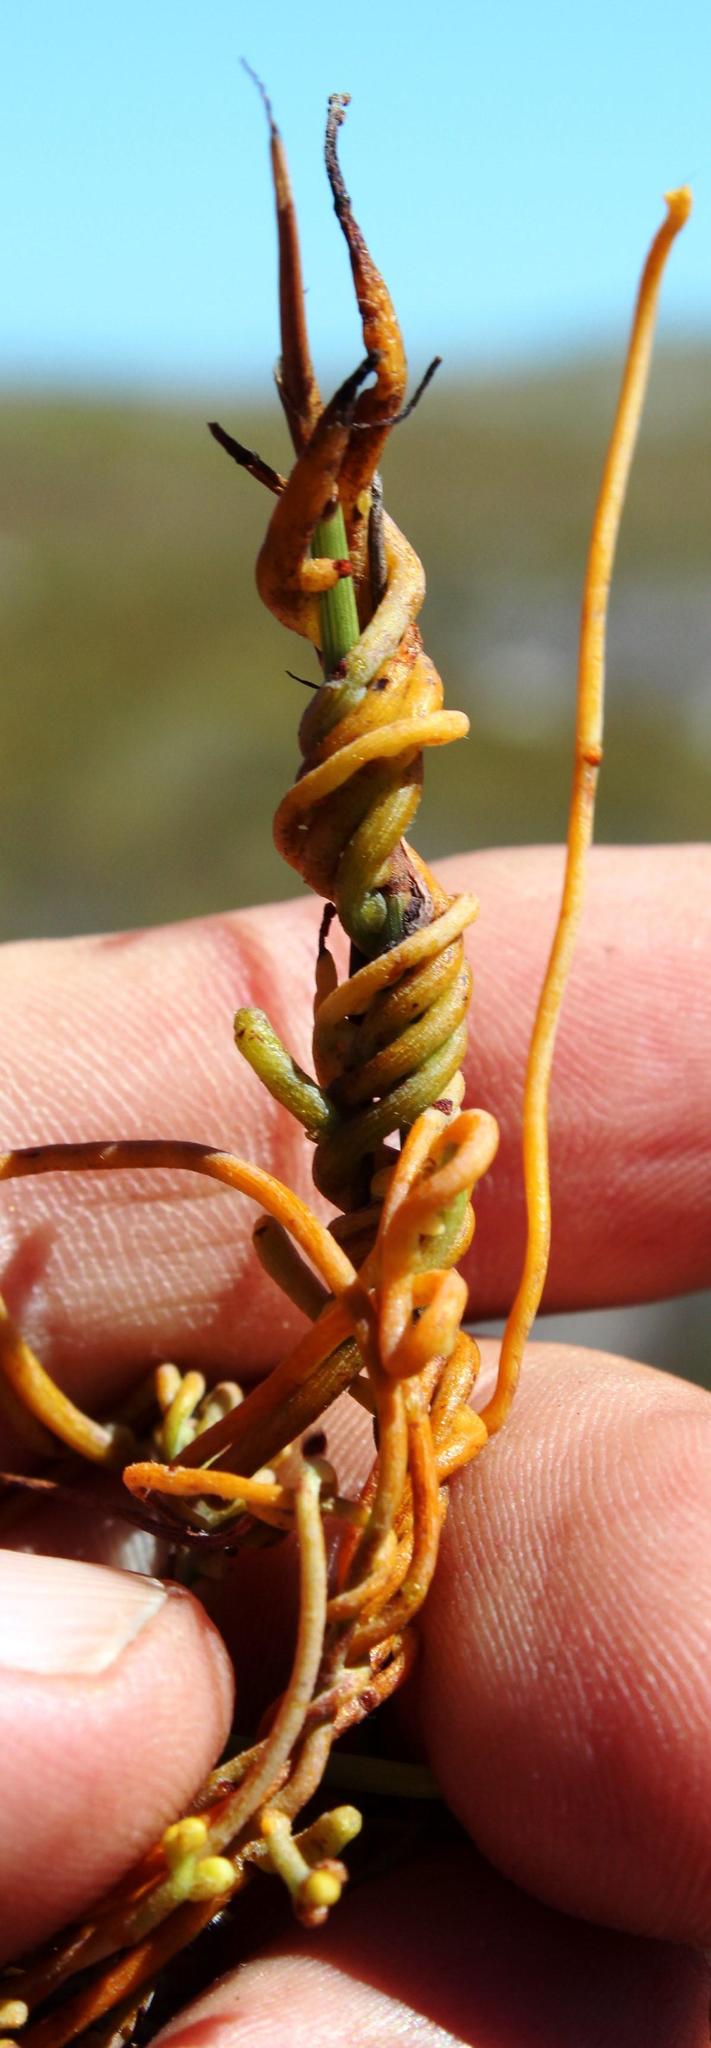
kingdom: Plantae
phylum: Tracheophyta
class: Magnoliopsida
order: Laurales
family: Lauraceae
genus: Cassytha
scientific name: Cassytha ciliolata
